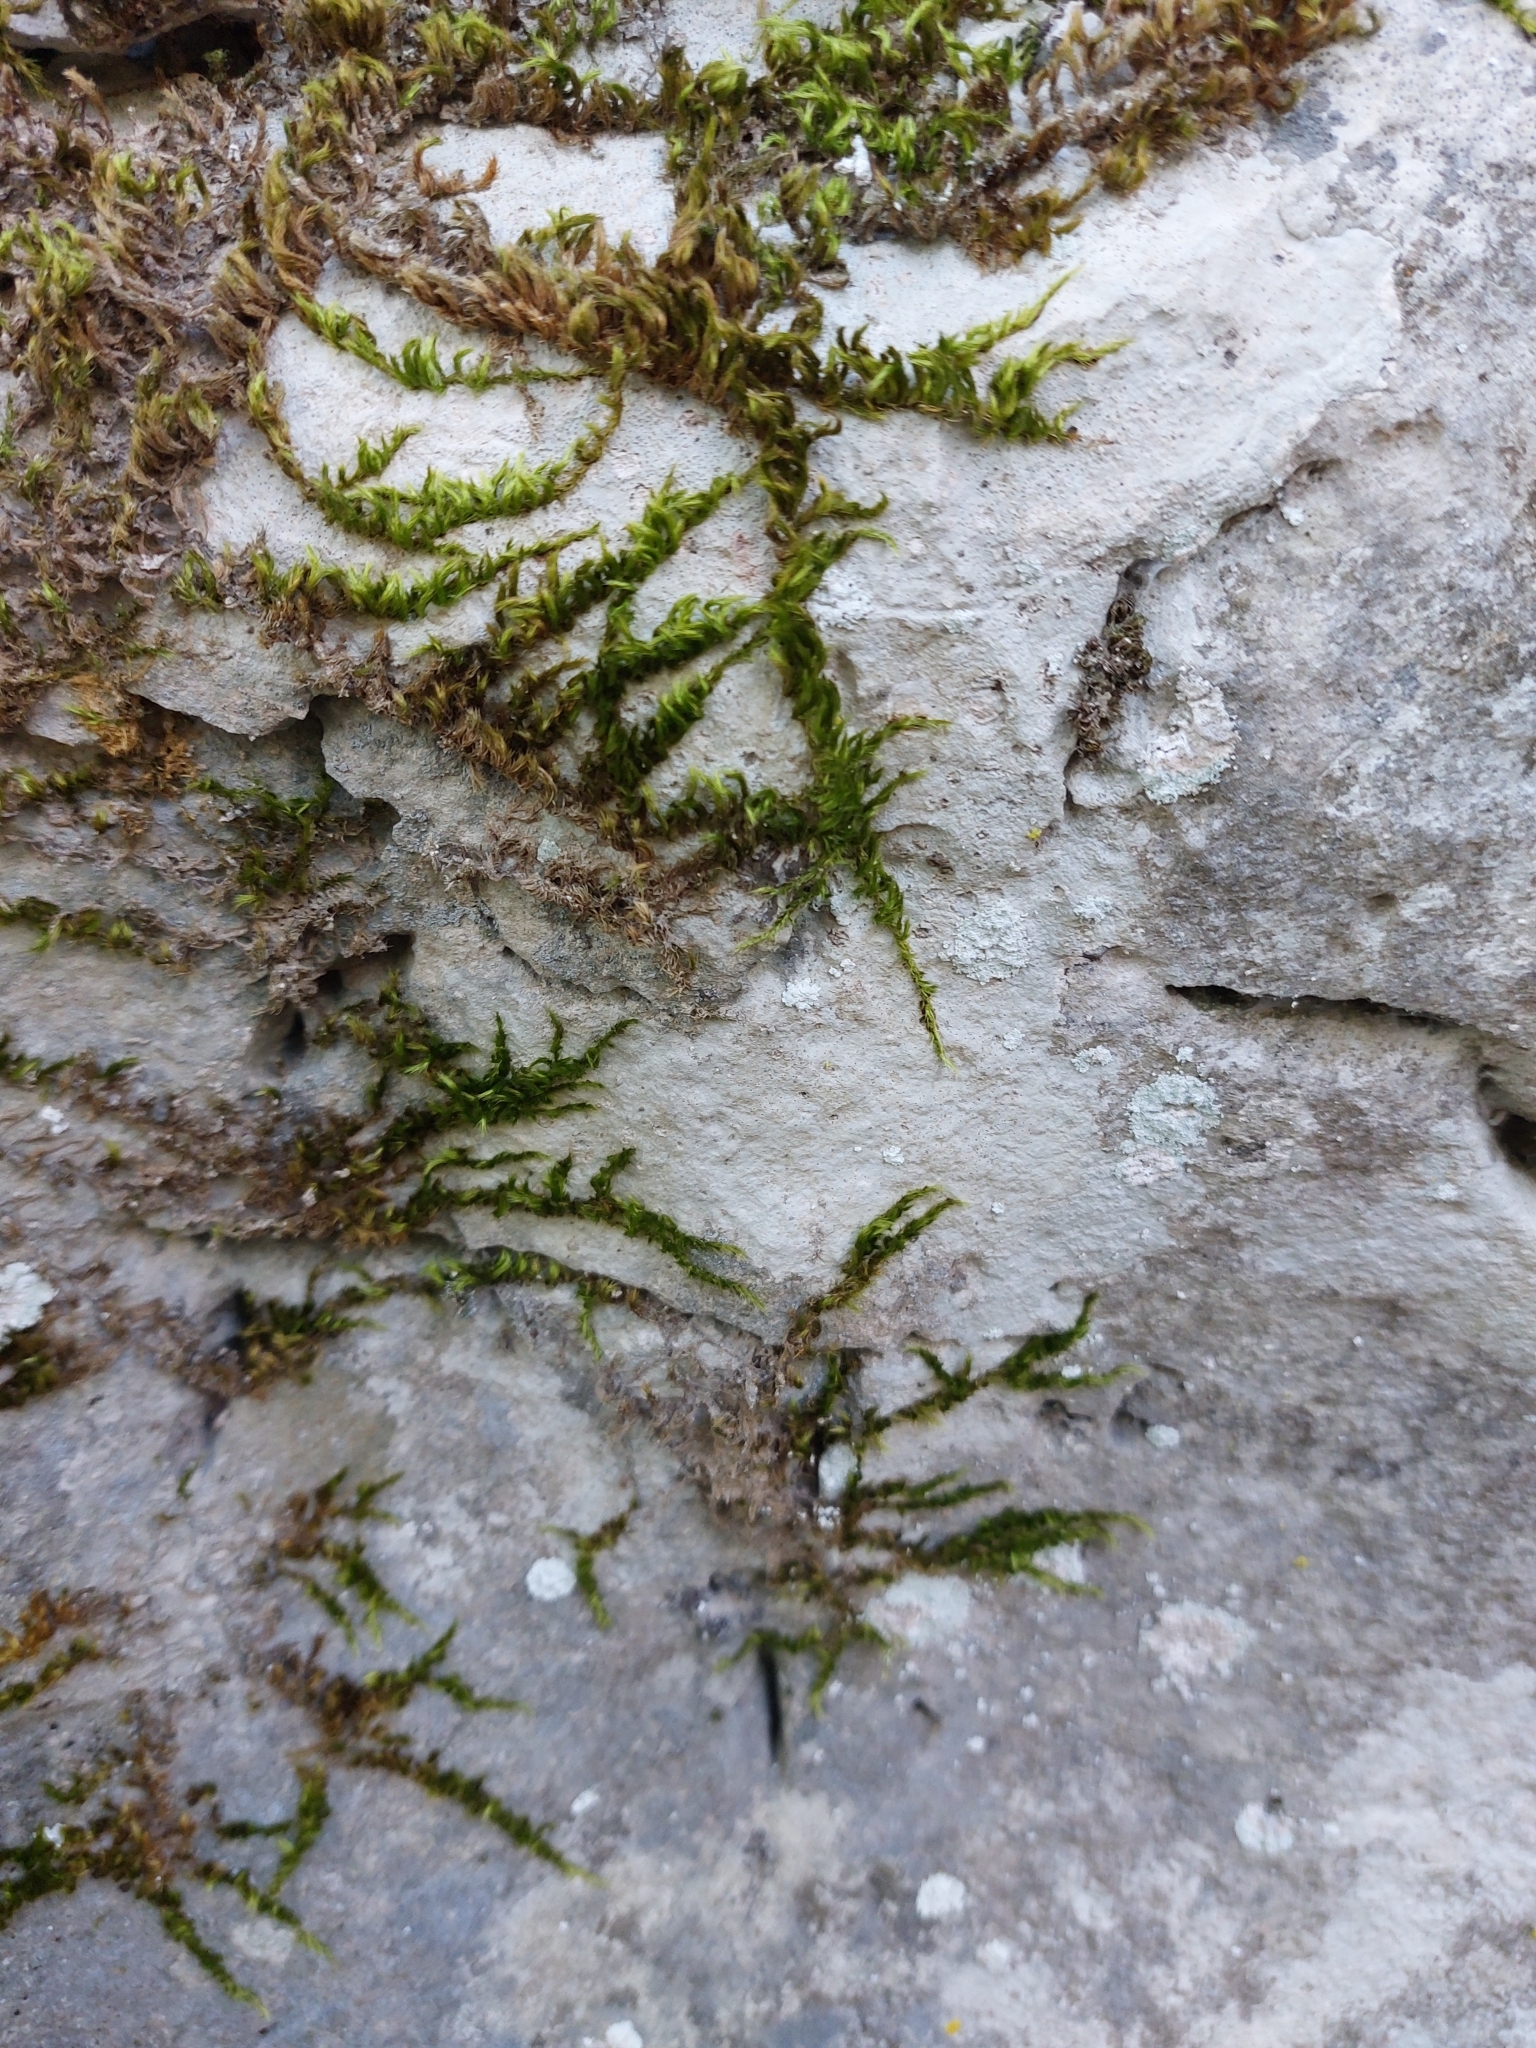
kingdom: Plantae
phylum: Bryophyta
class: Bryopsida
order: Hypnales
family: Brachytheciaceae
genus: Homalothecium
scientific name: Homalothecium sericeum
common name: Silky wall feather-moss
